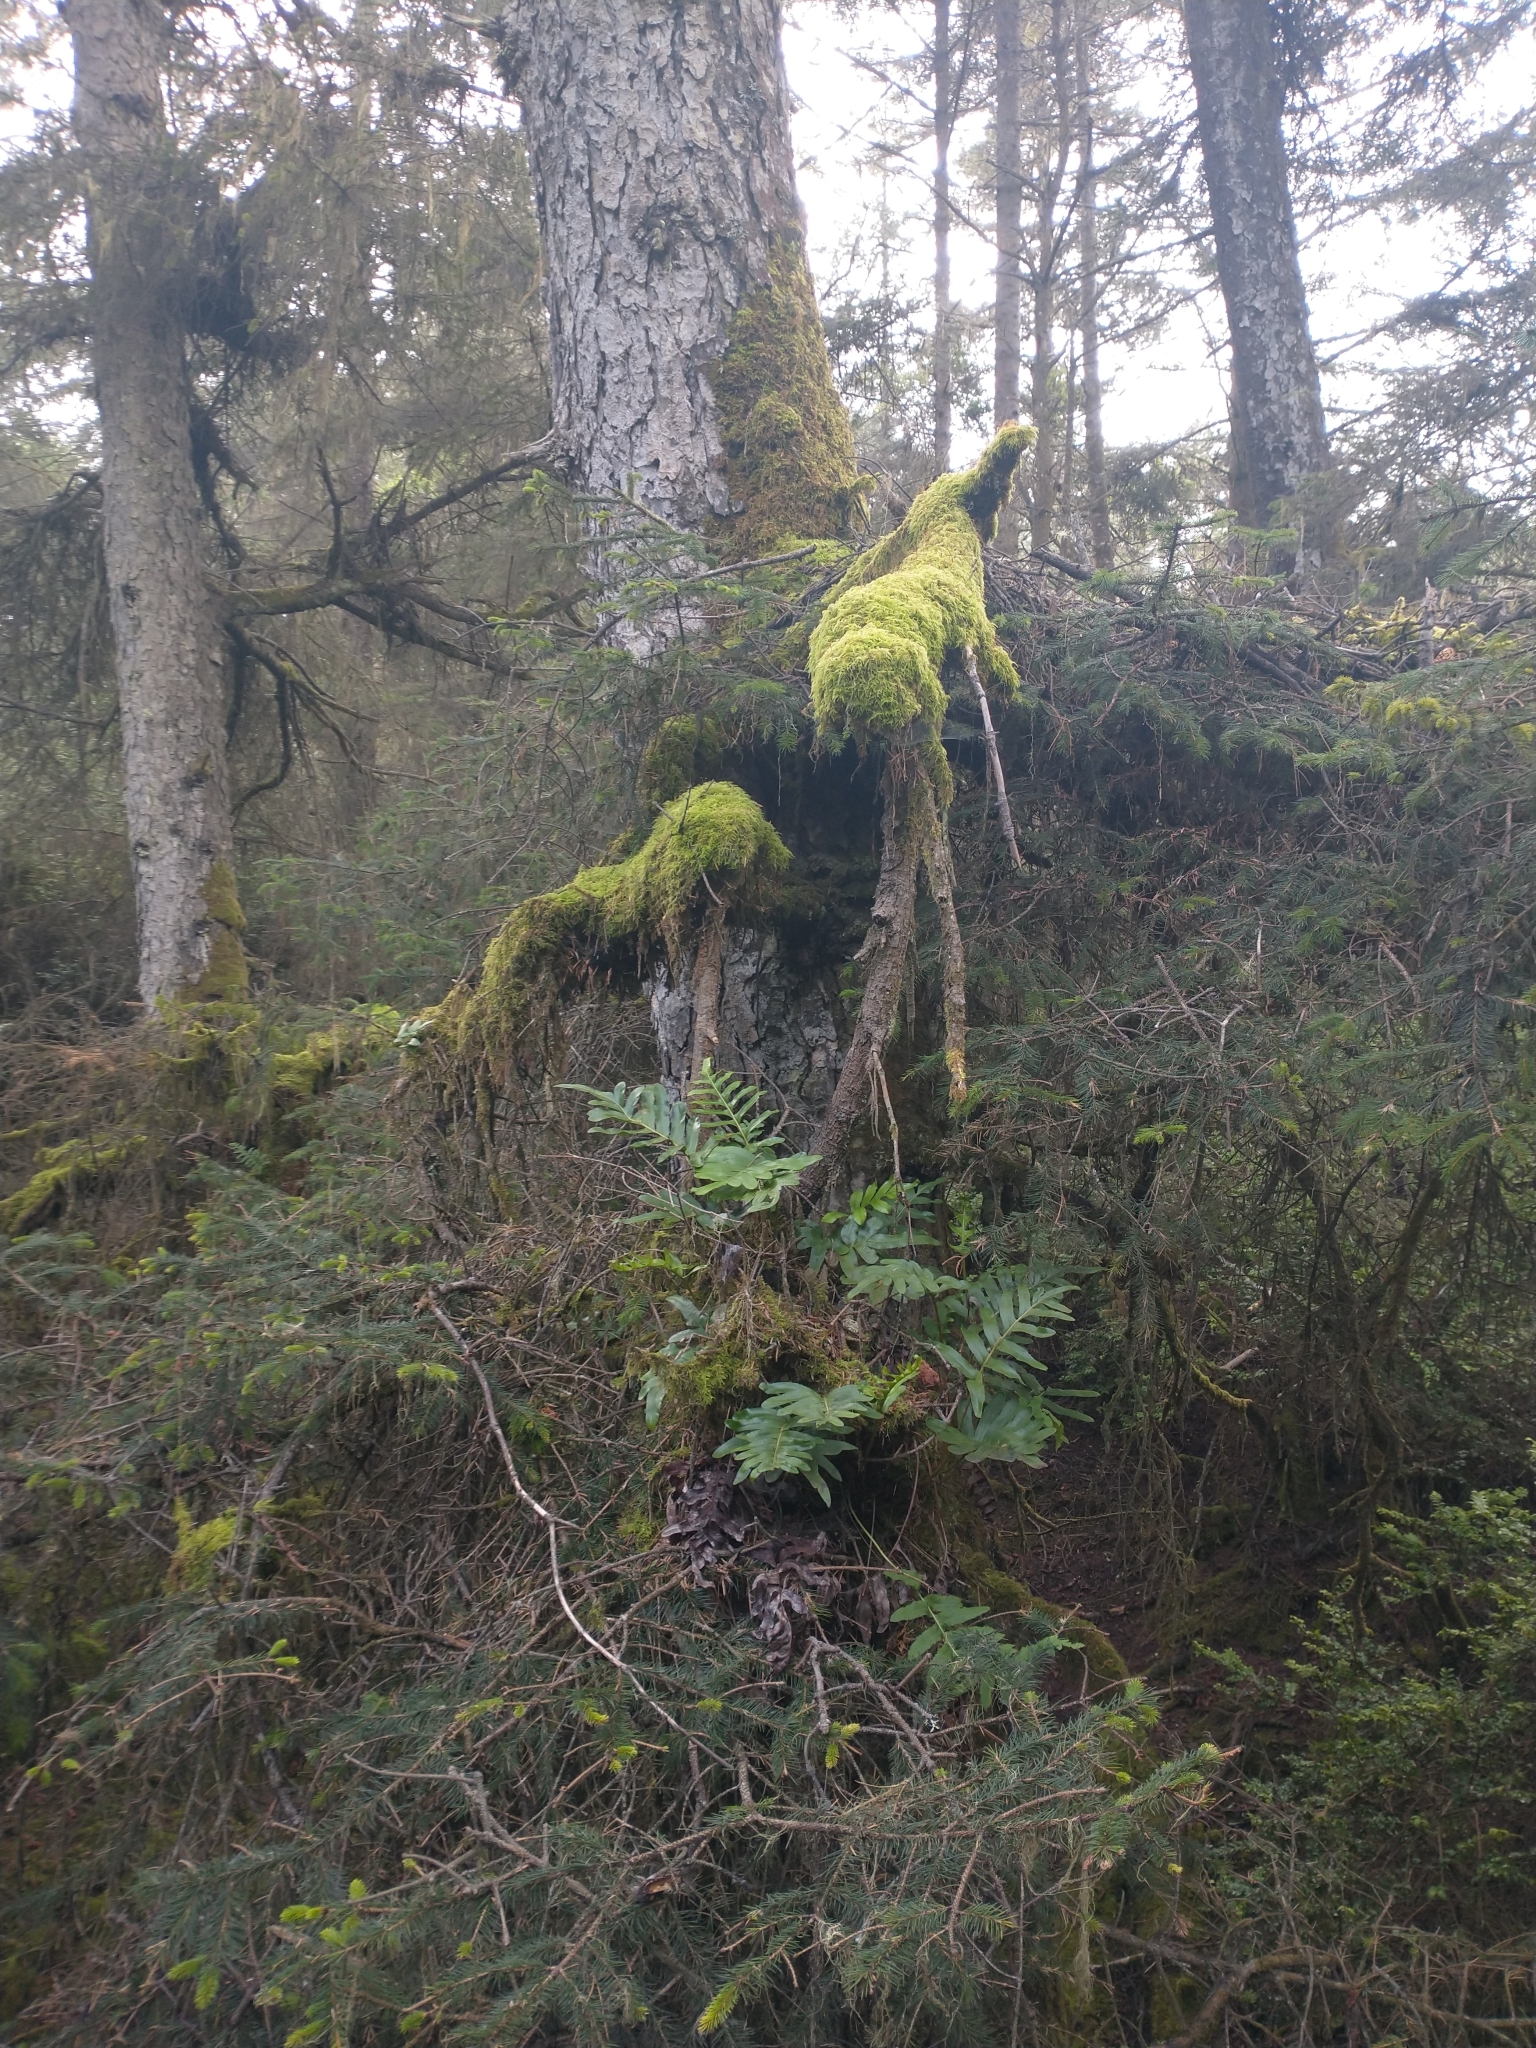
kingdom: Plantae
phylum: Tracheophyta
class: Polypodiopsida
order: Polypodiales
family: Polypodiaceae
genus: Polypodium
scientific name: Polypodium scouleri
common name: Scouler's polypody
